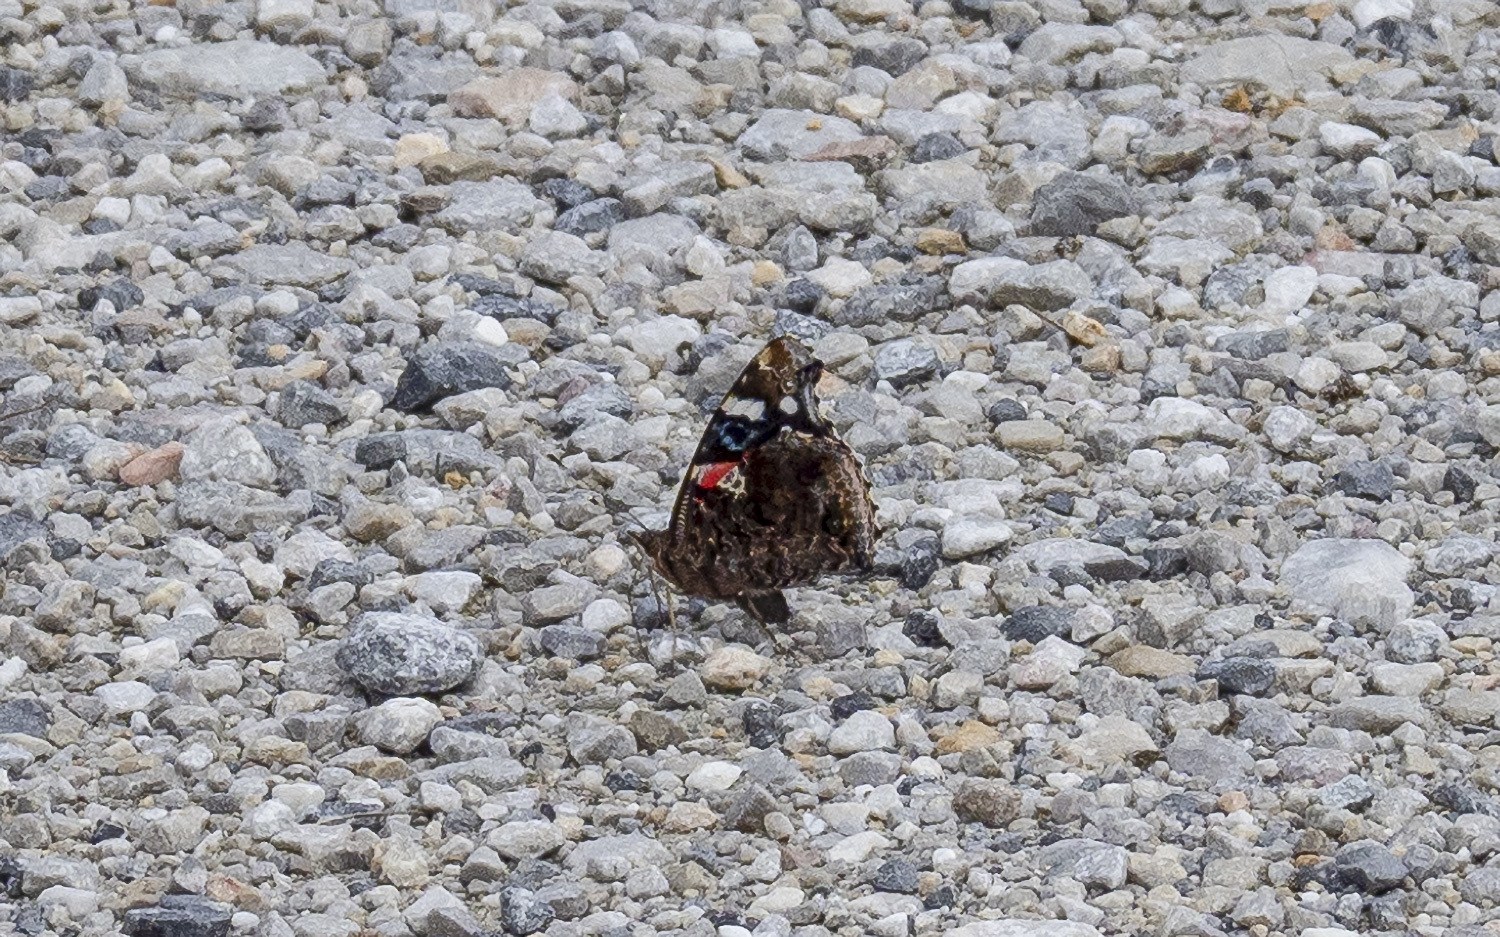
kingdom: Animalia
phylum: Arthropoda
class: Insecta
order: Lepidoptera
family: Nymphalidae
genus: Vanessa
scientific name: Vanessa atalanta
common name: Red admiral
